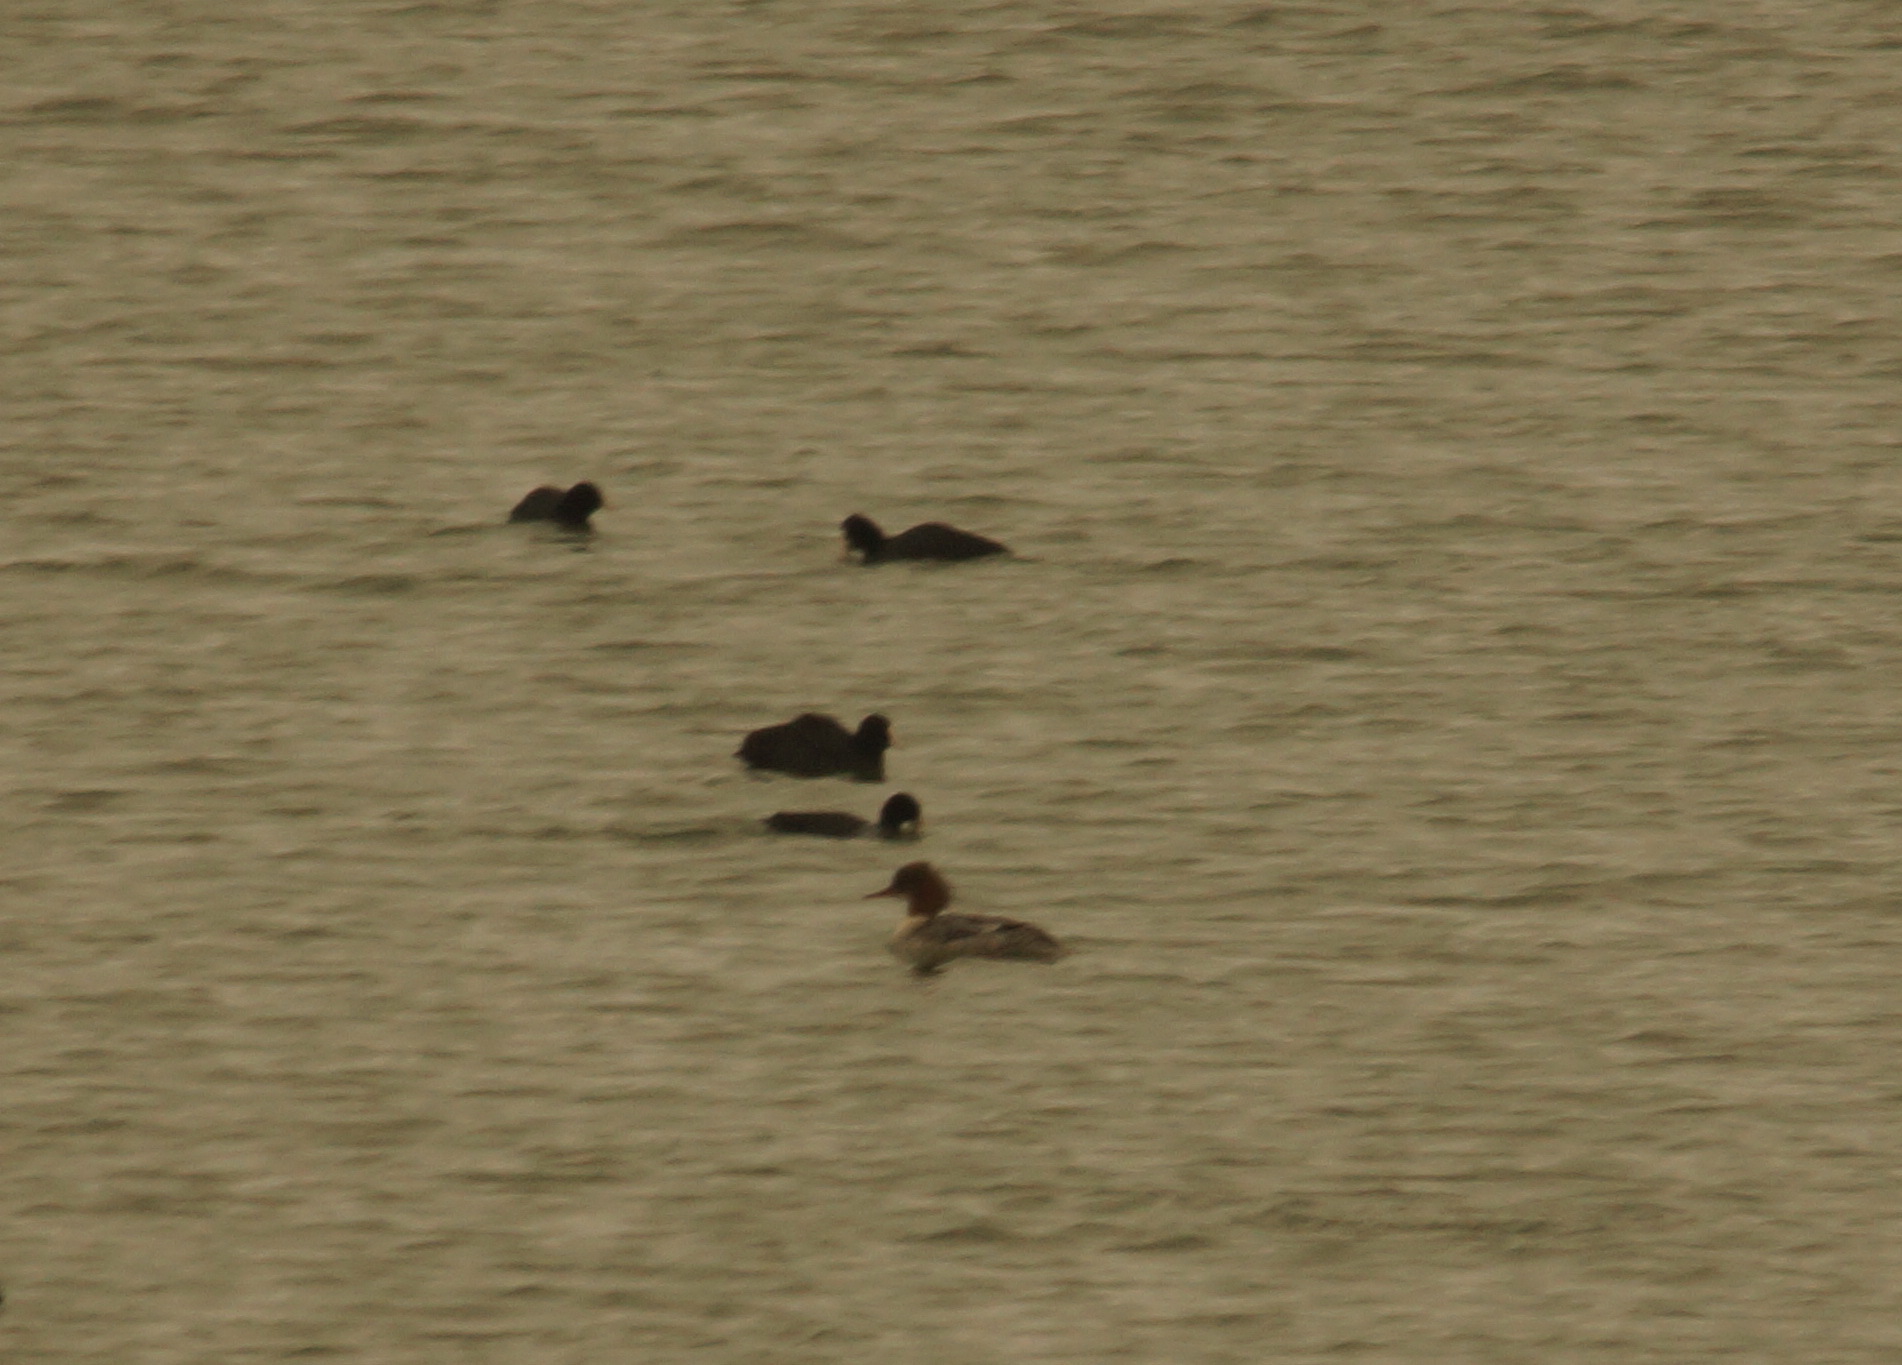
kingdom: Animalia
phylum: Chordata
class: Aves
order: Anseriformes
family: Anatidae
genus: Mergus
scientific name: Mergus merganser
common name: Common merganser
